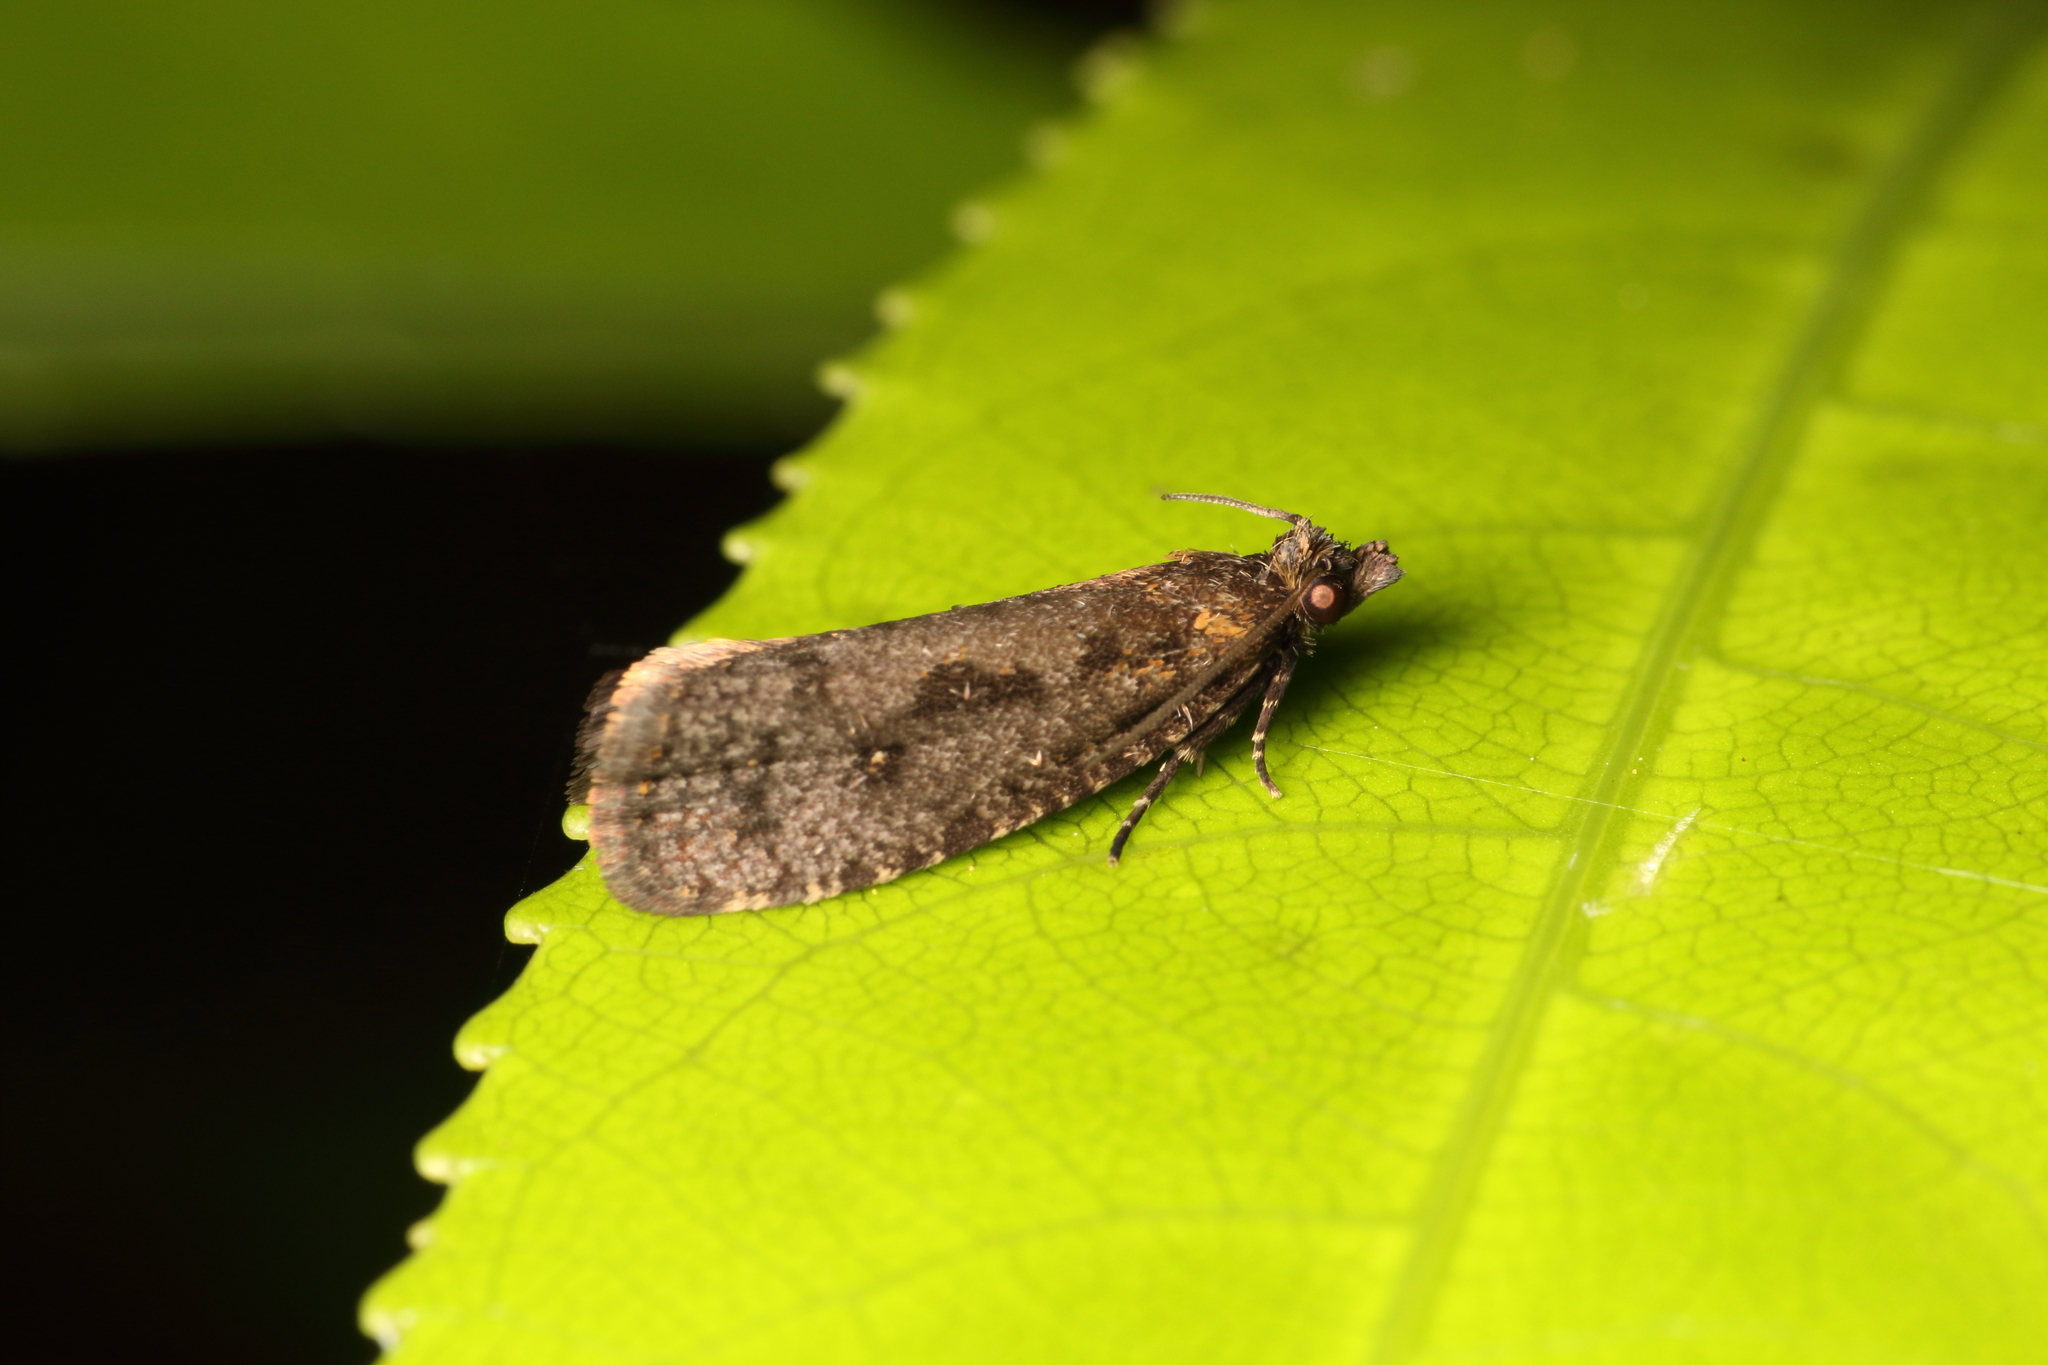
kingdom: Animalia
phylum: Arthropoda
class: Insecta
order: Lepidoptera
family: Tortricidae
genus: Cryptaspasma
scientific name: Cryptaspasma querula
